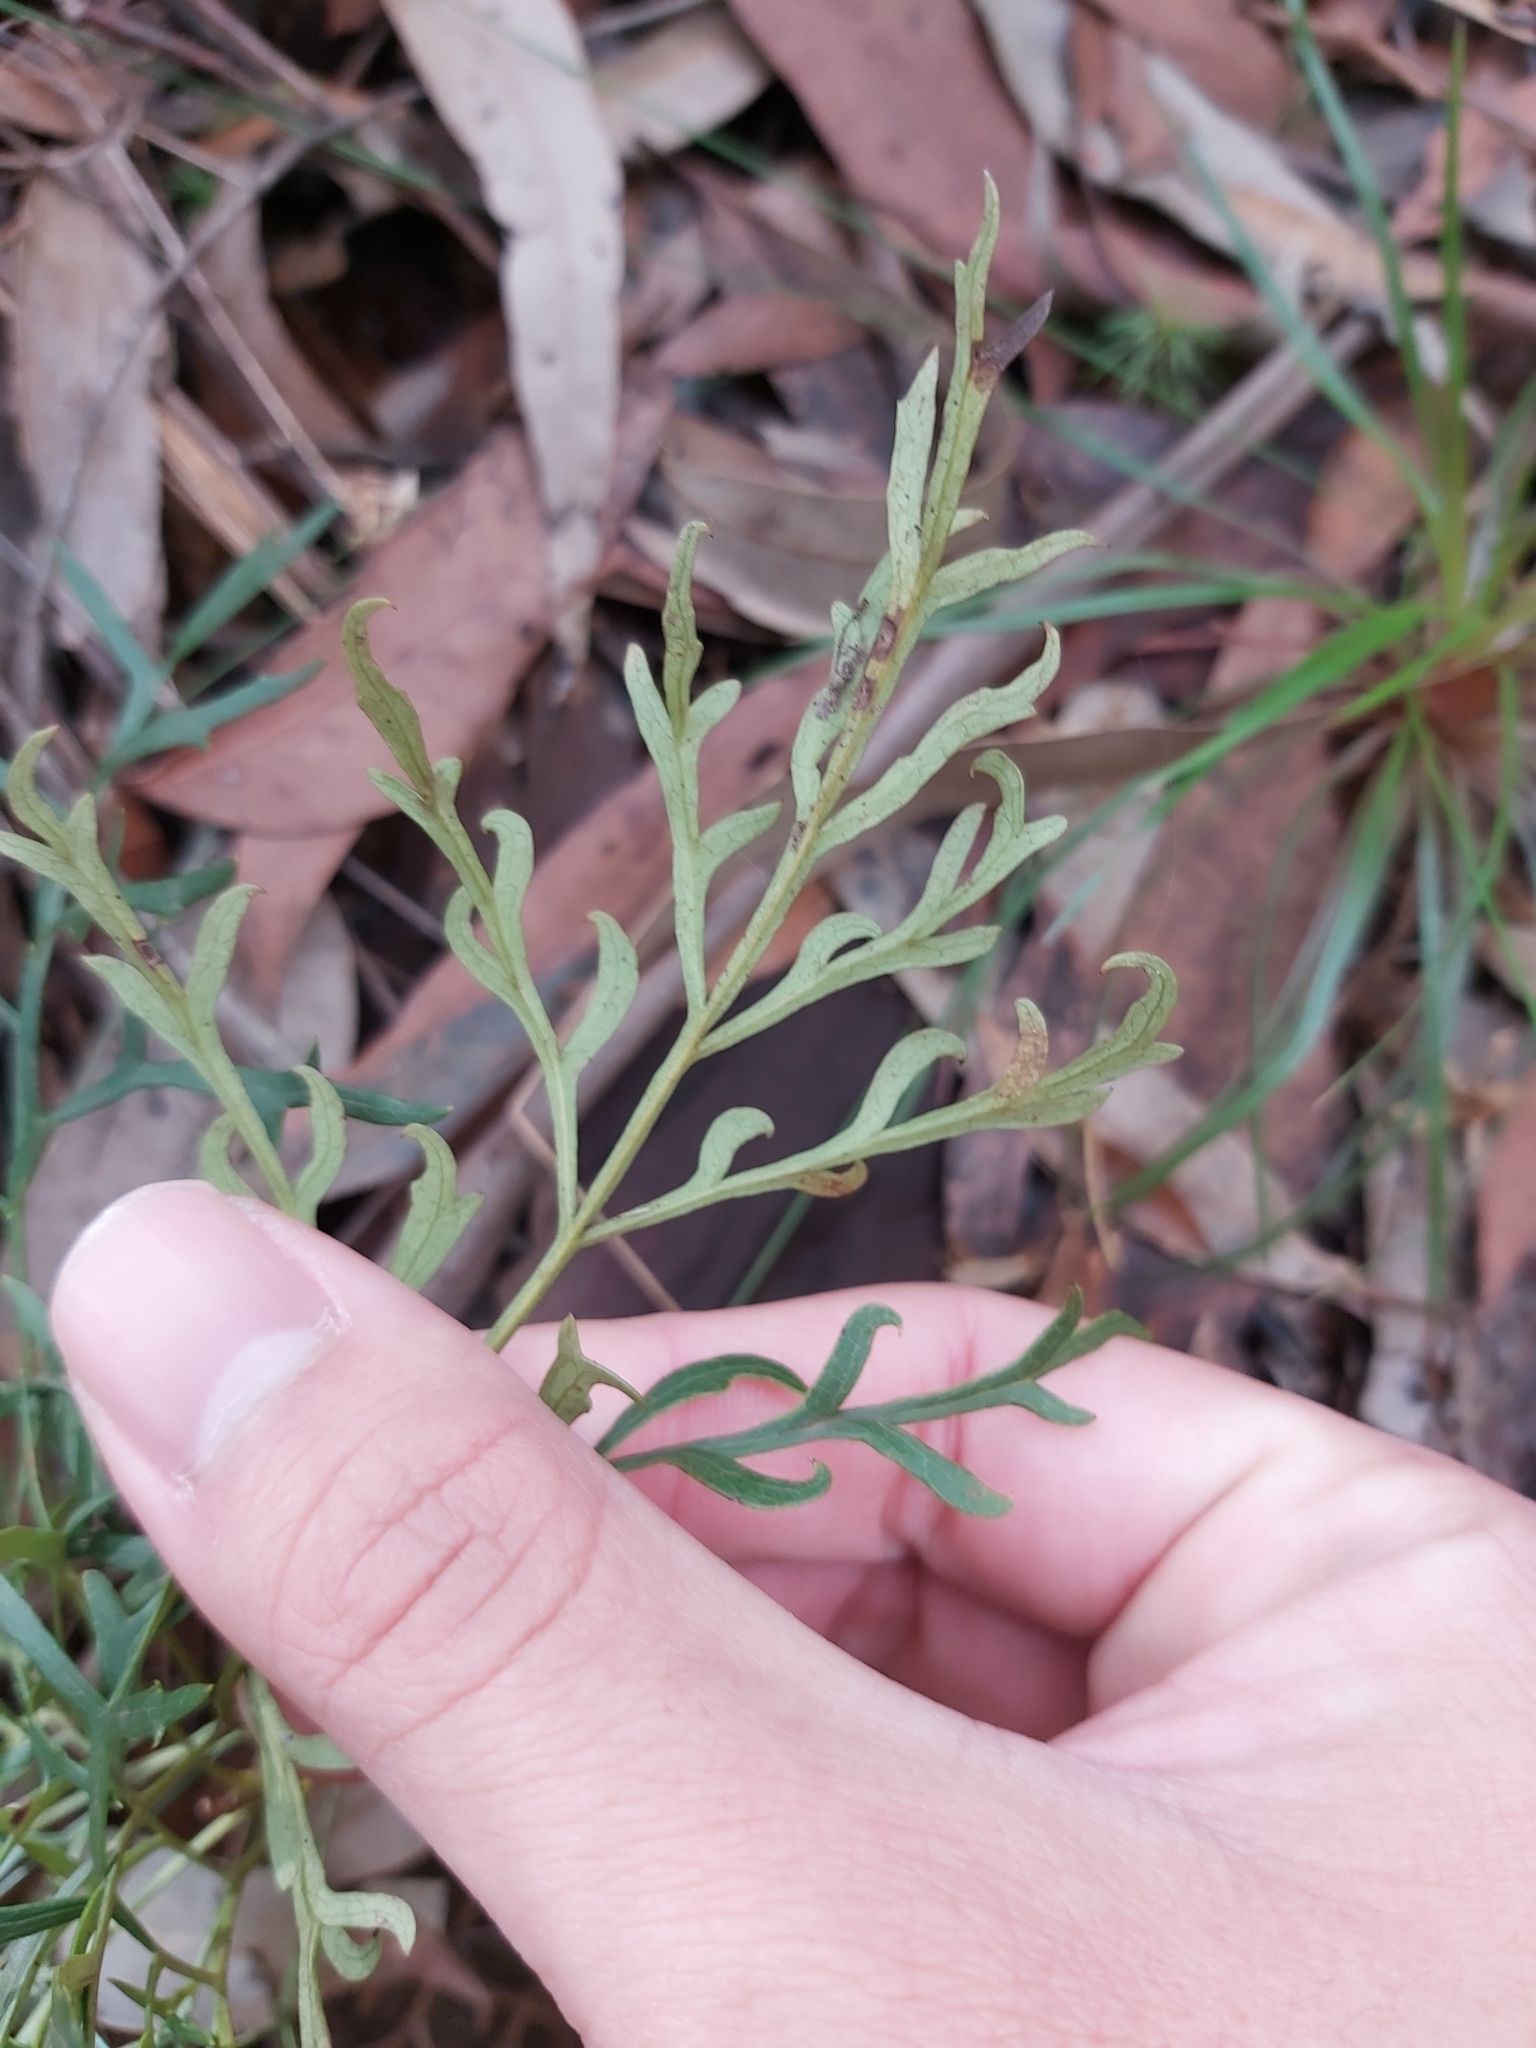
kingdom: Plantae
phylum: Tracheophyta
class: Magnoliopsida
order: Proteales
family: Proteaceae
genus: Lomatia
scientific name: Lomatia silaifolia
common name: Crinklebush
